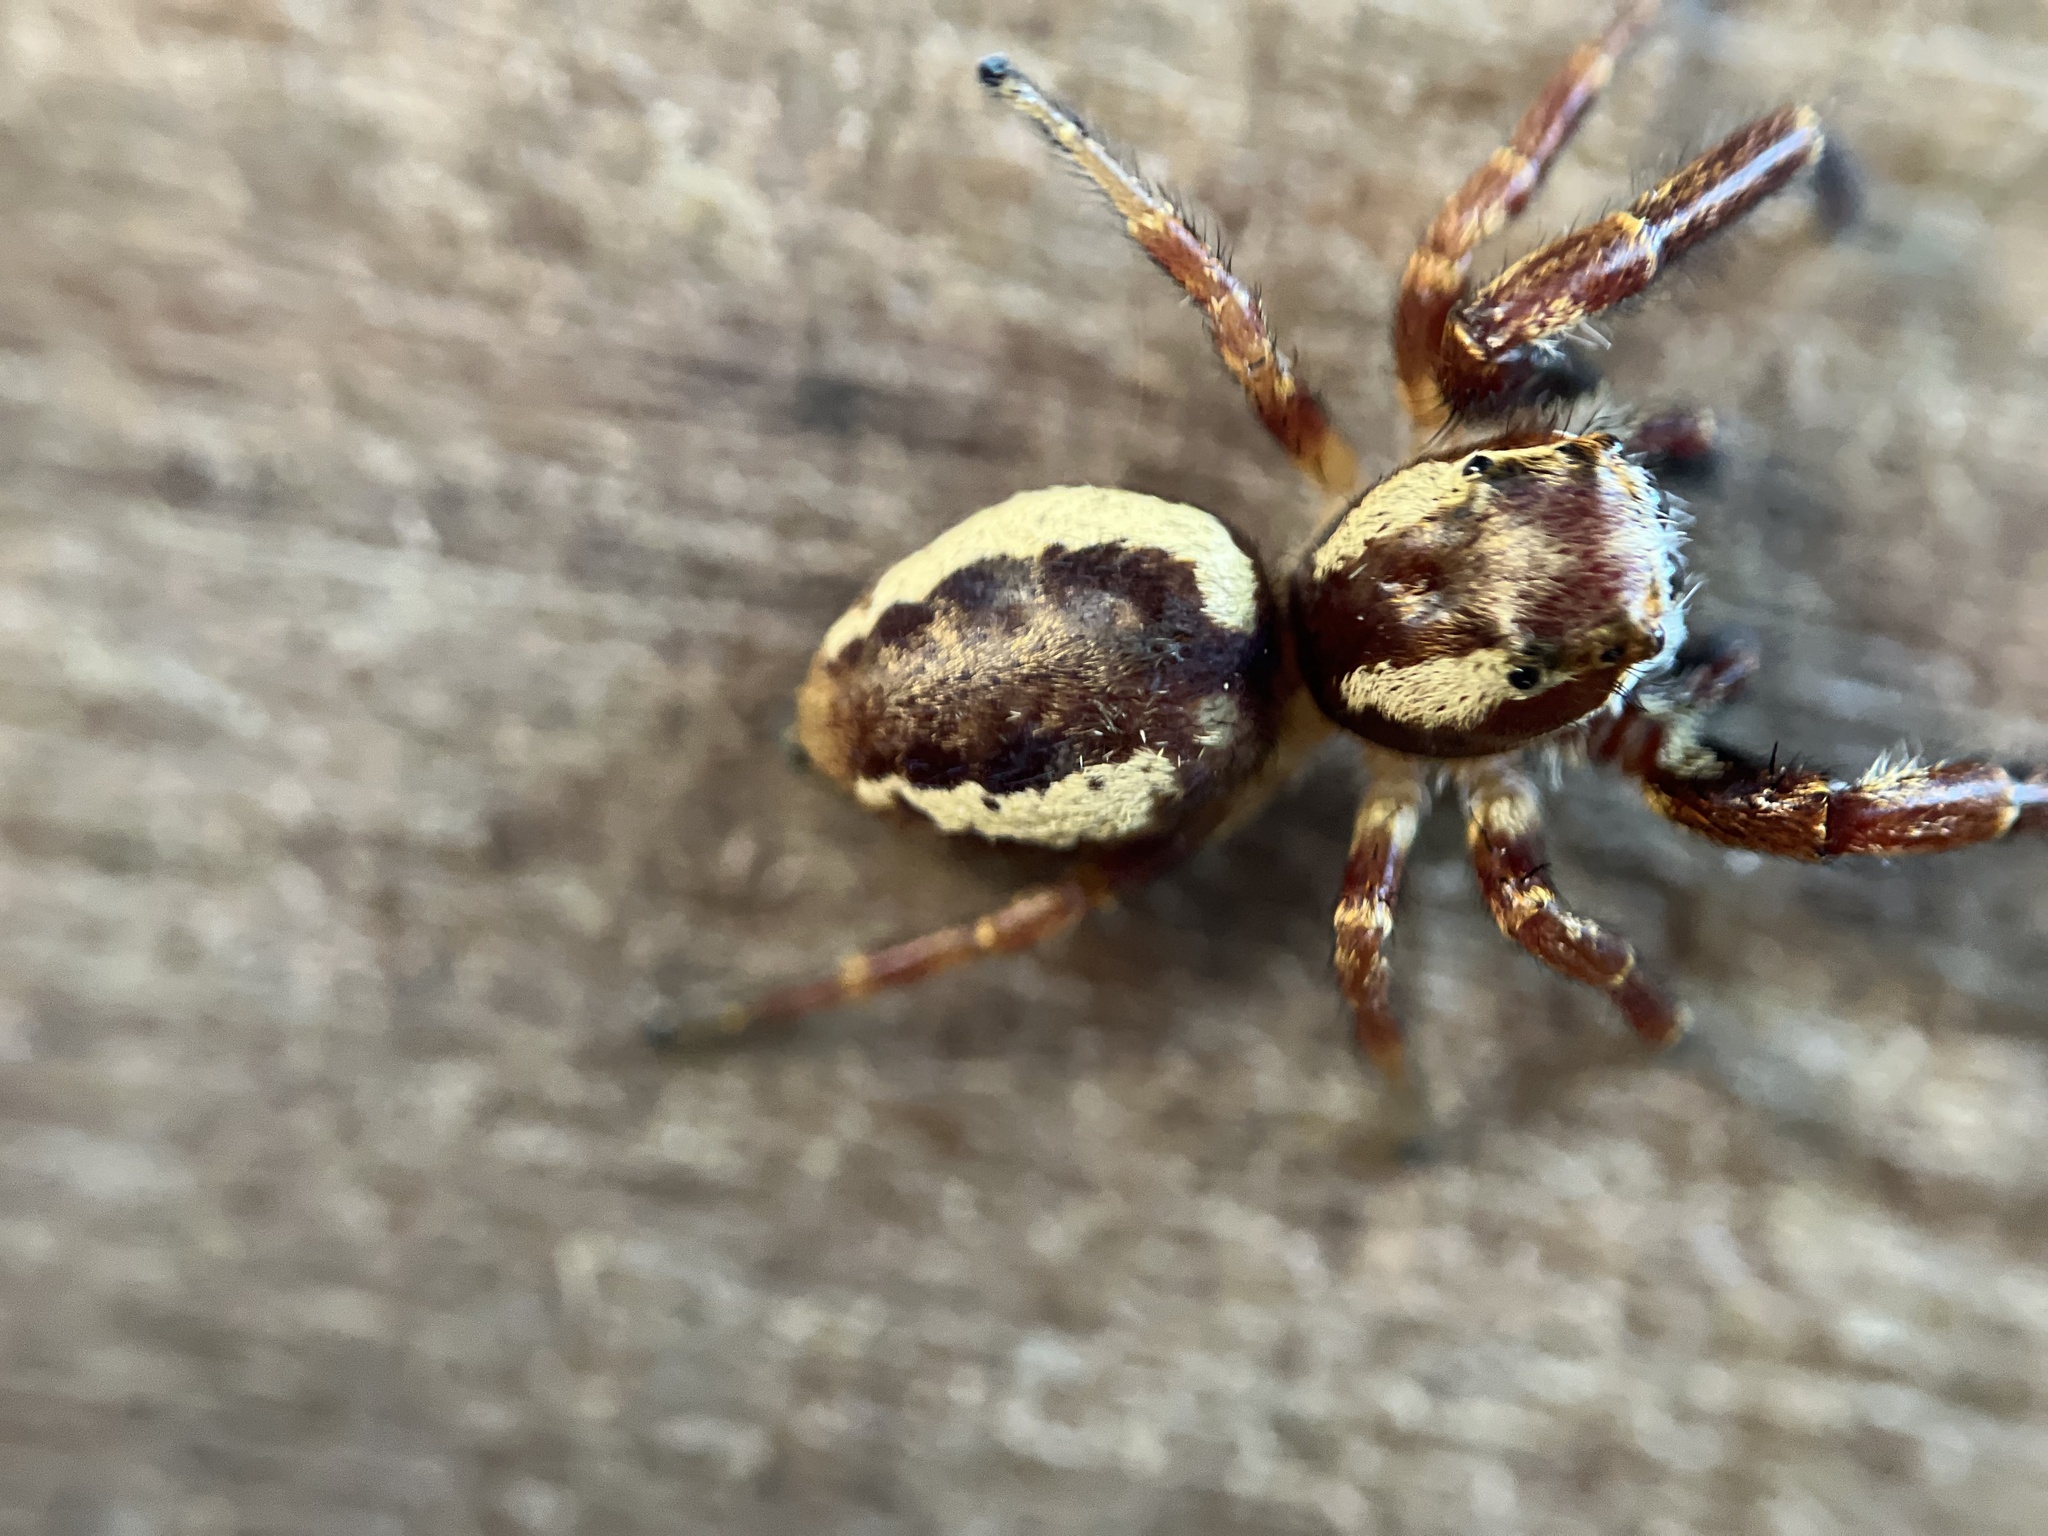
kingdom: Animalia
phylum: Arthropoda
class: Arachnida
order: Araneae
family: Salticidae
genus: Phanias
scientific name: Phanias albeolus
